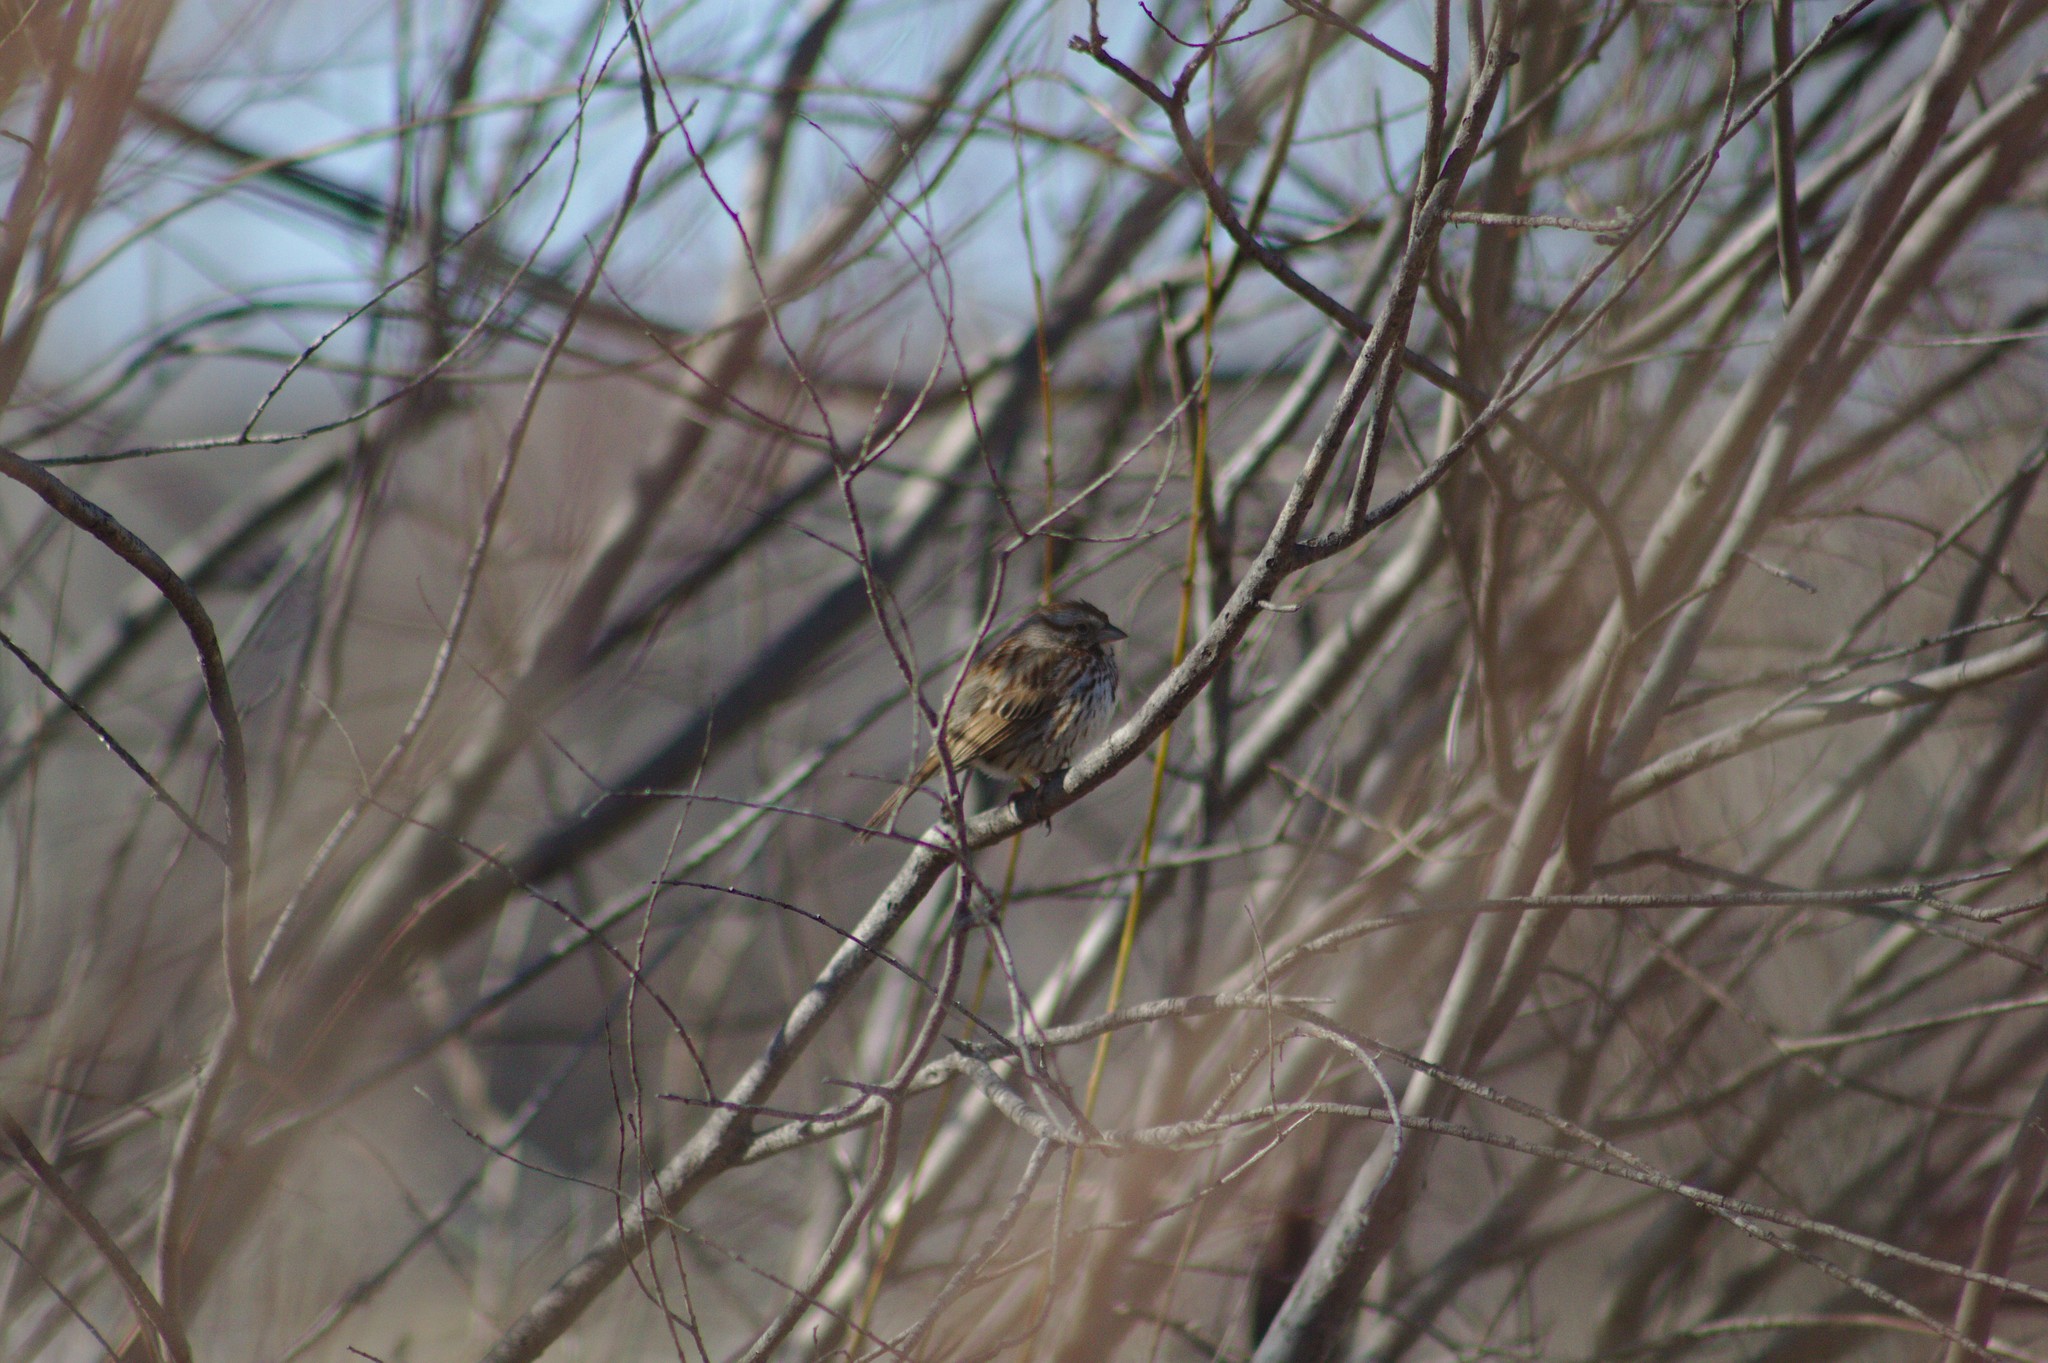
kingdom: Animalia
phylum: Chordata
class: Aves
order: Passeriformes
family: Passerellidae
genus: Melospiza
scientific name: Melospiza melodia
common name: Song sparrow
